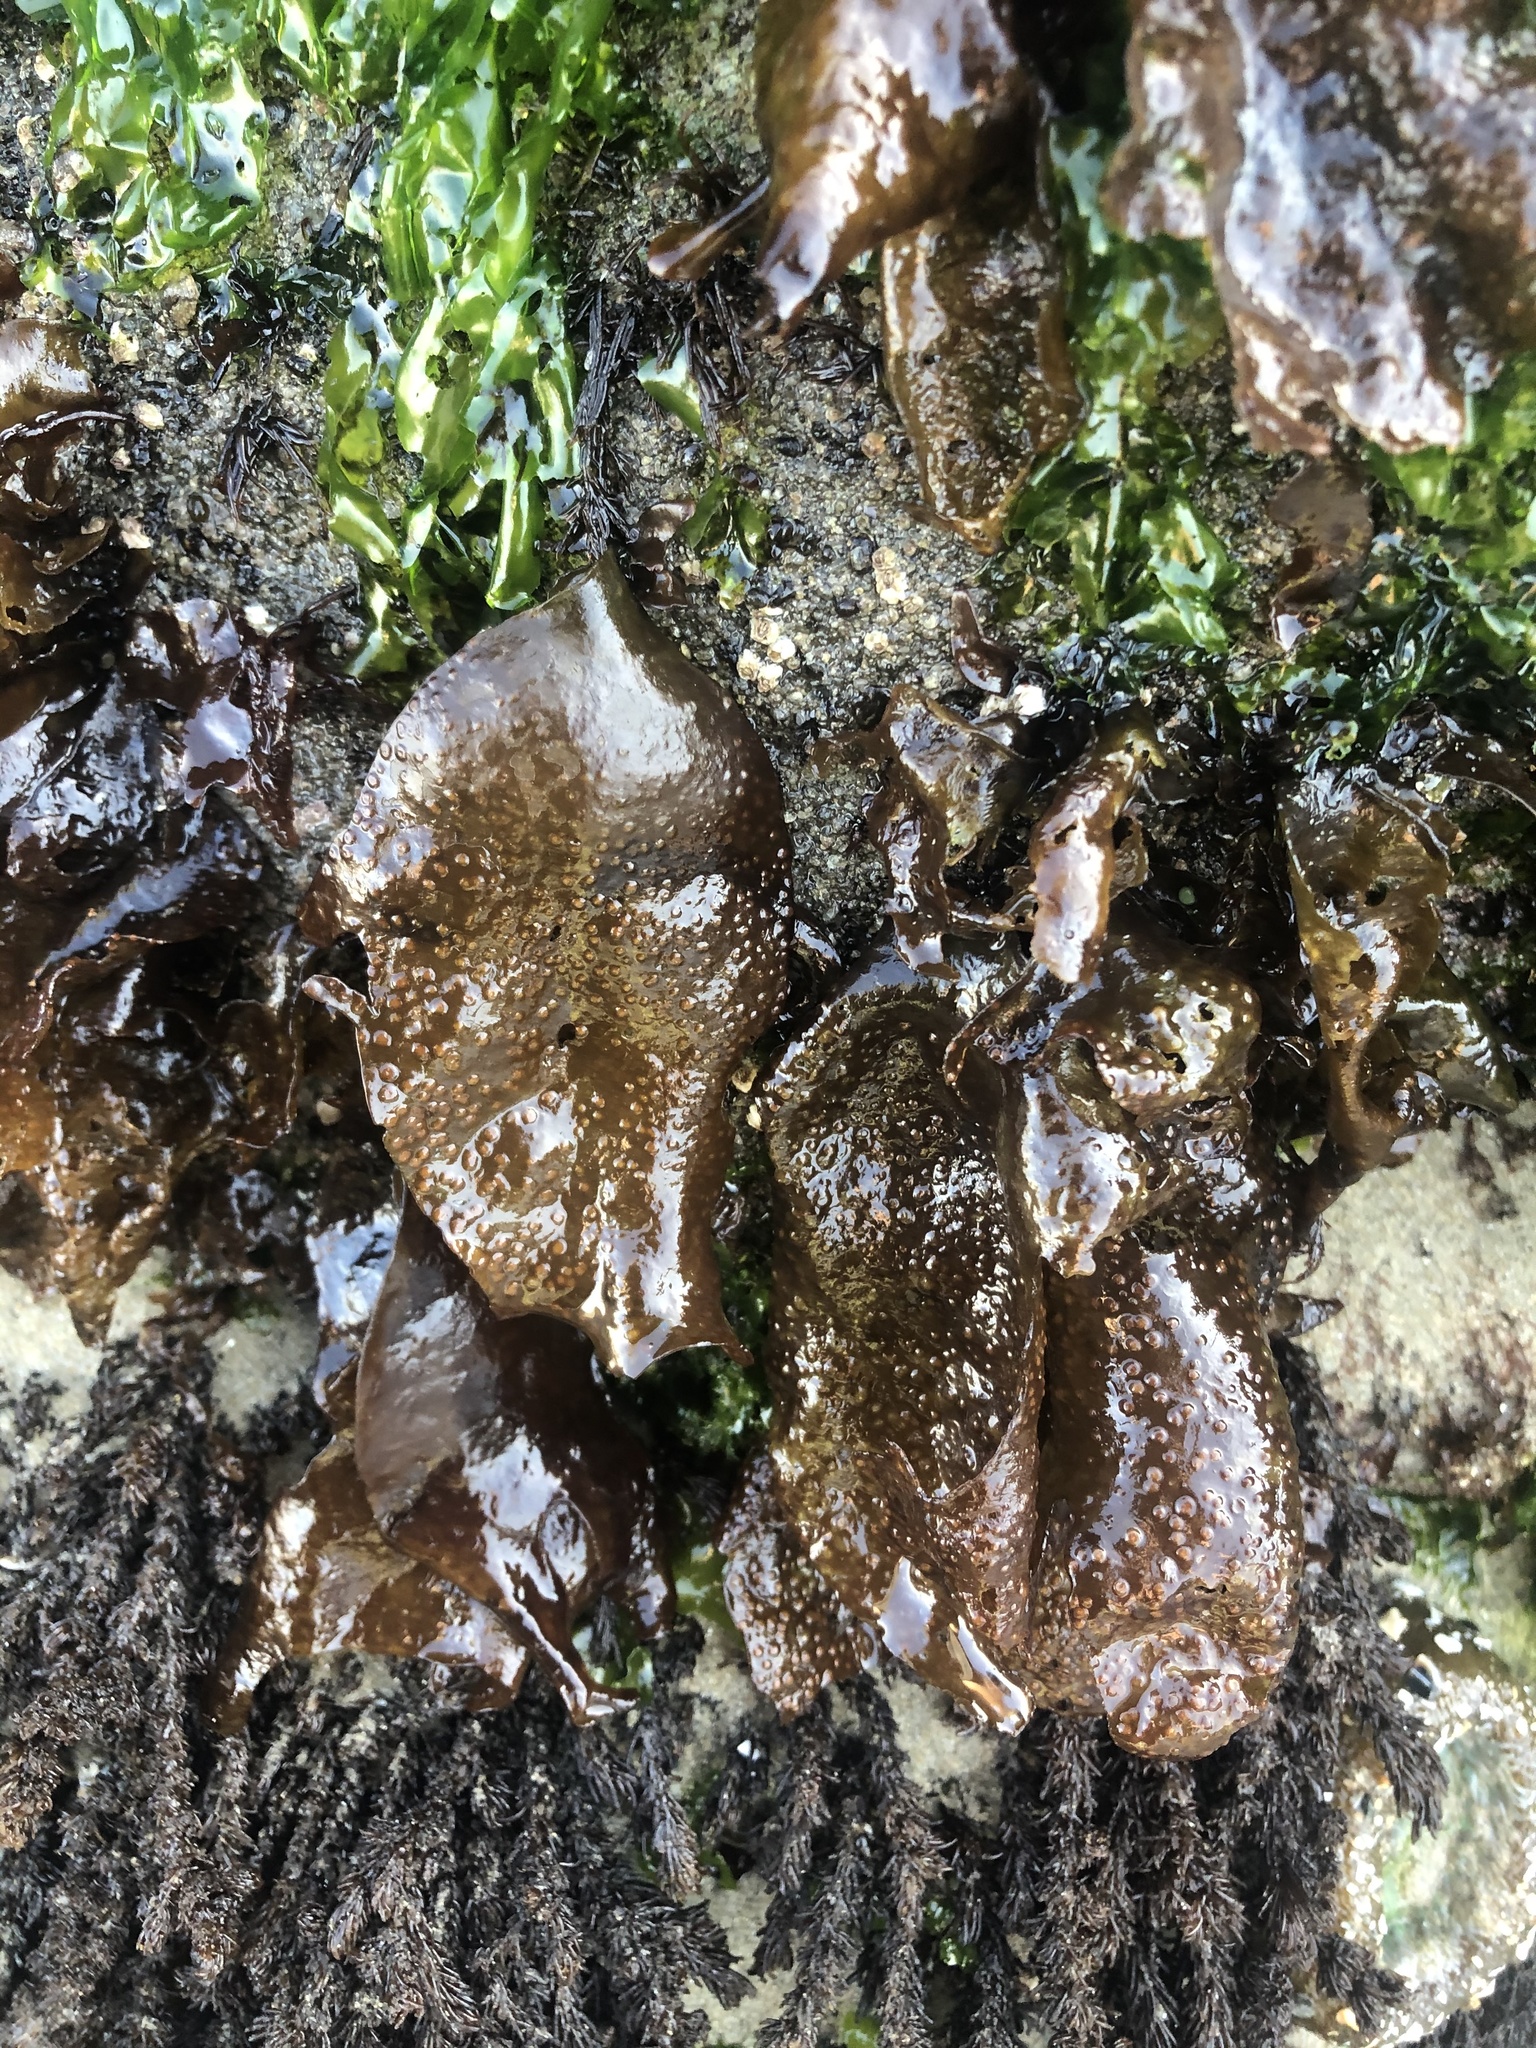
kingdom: Plantae
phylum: Rhodophyta
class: Florideophyceae
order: Gigartinales
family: Gigartinaceae
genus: Mazzaella
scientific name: Mazzaella oregona
